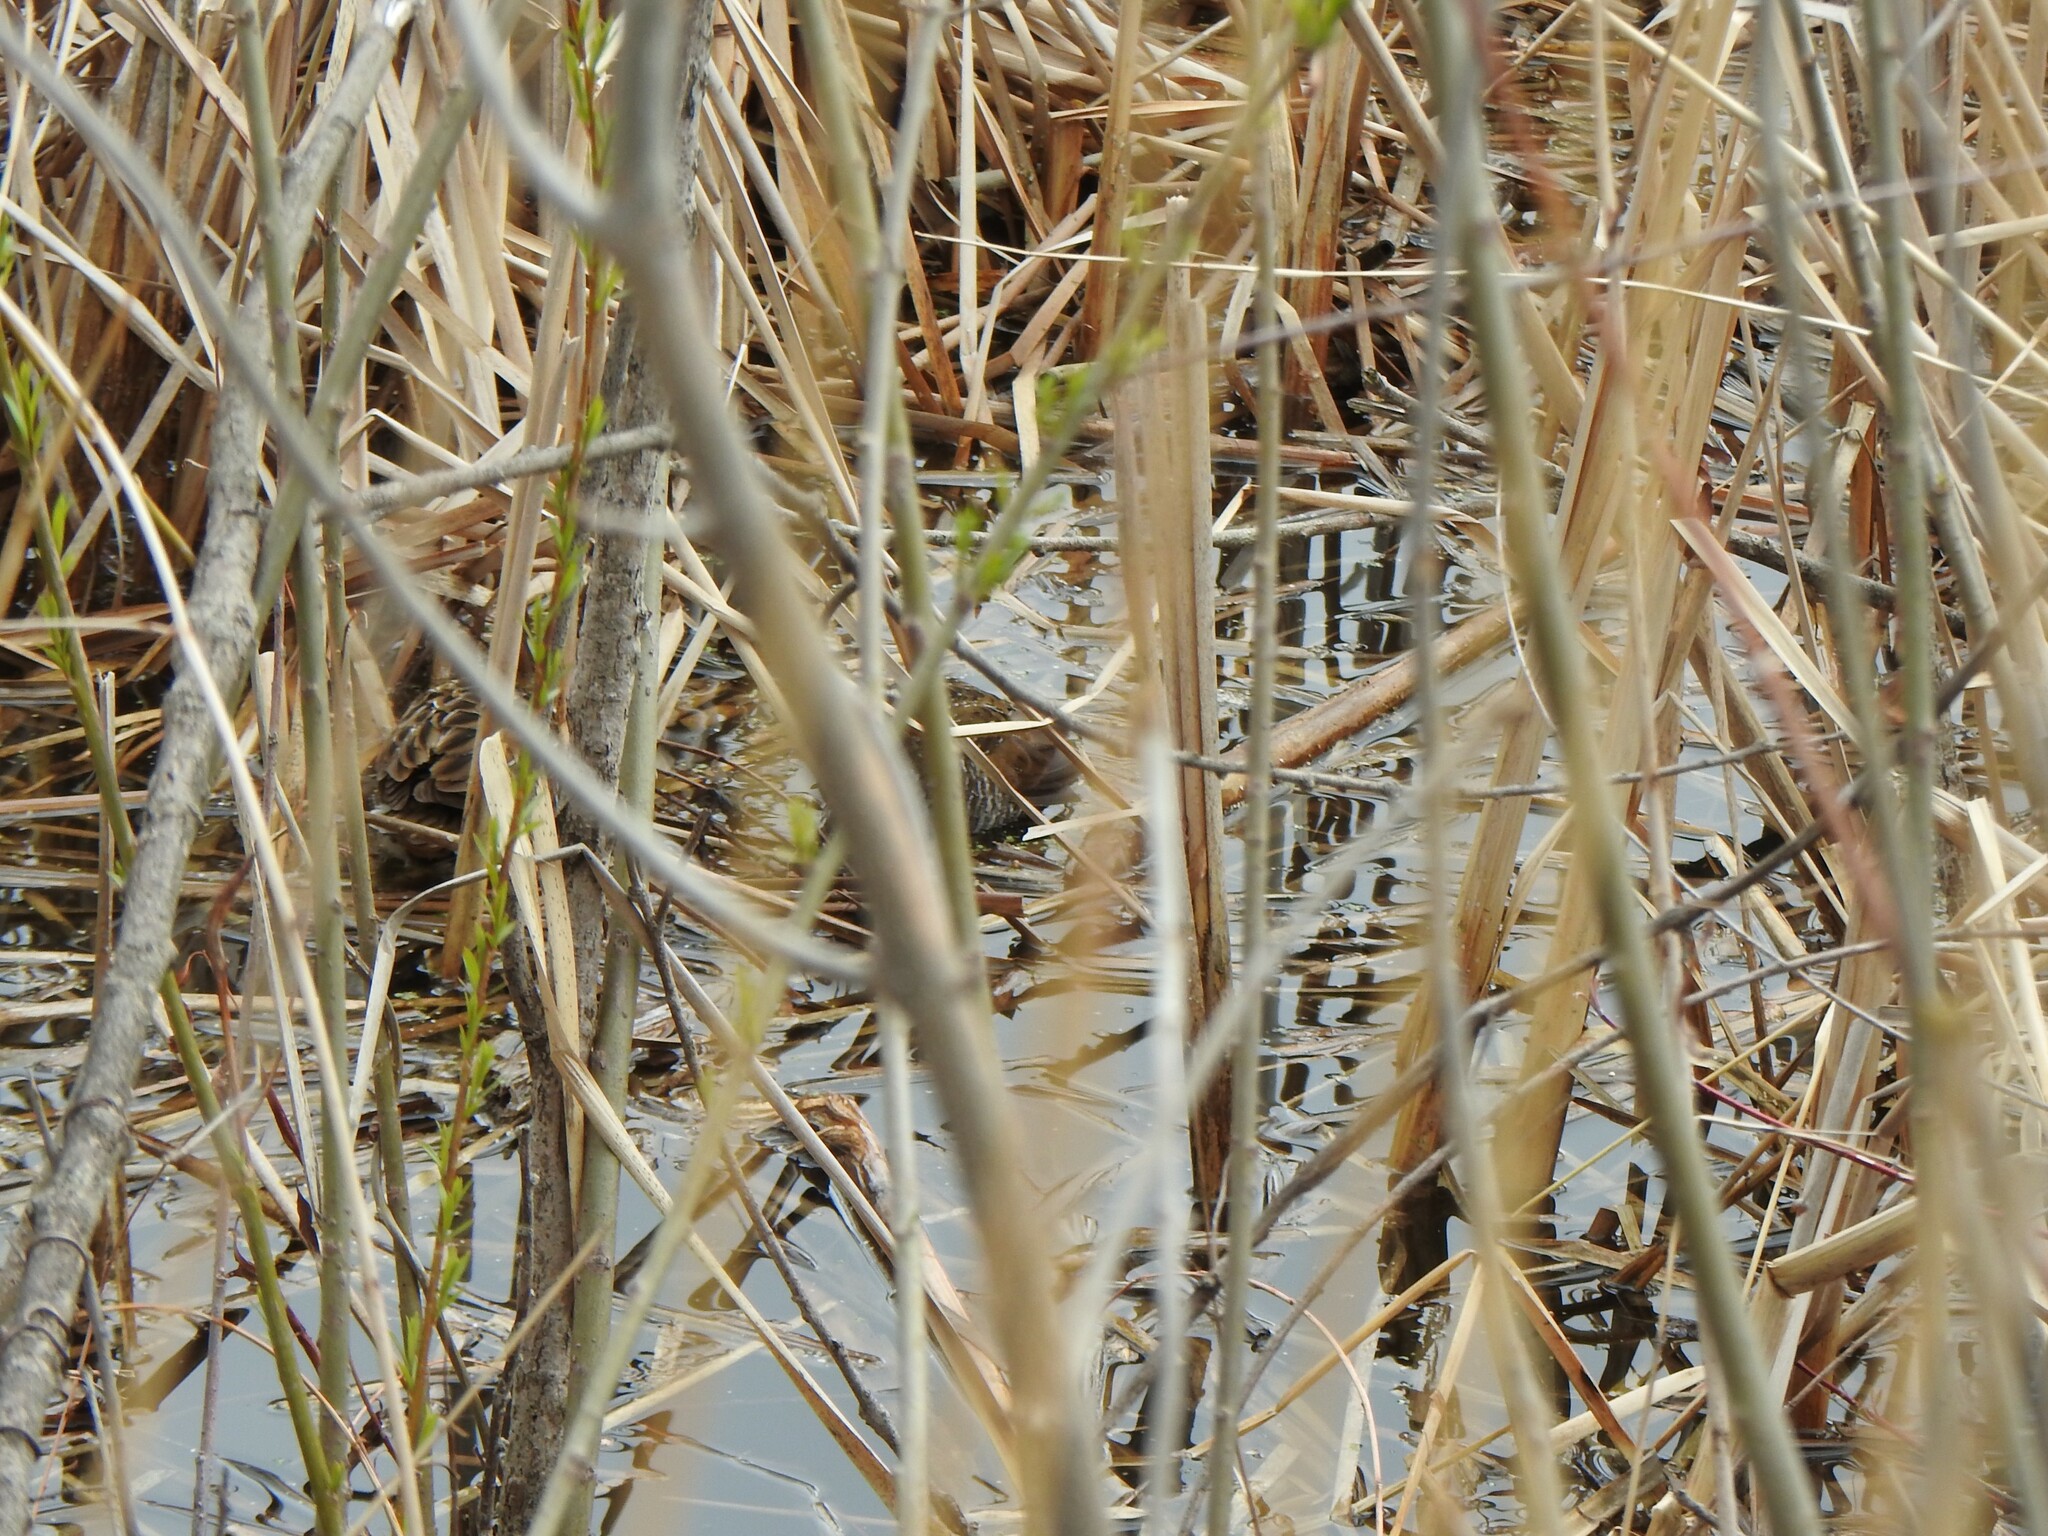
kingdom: Animalia
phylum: Chordata
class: Aves
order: Gruiformes
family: Rallidae
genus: Porzana
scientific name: Porzana carolina
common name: Sora
